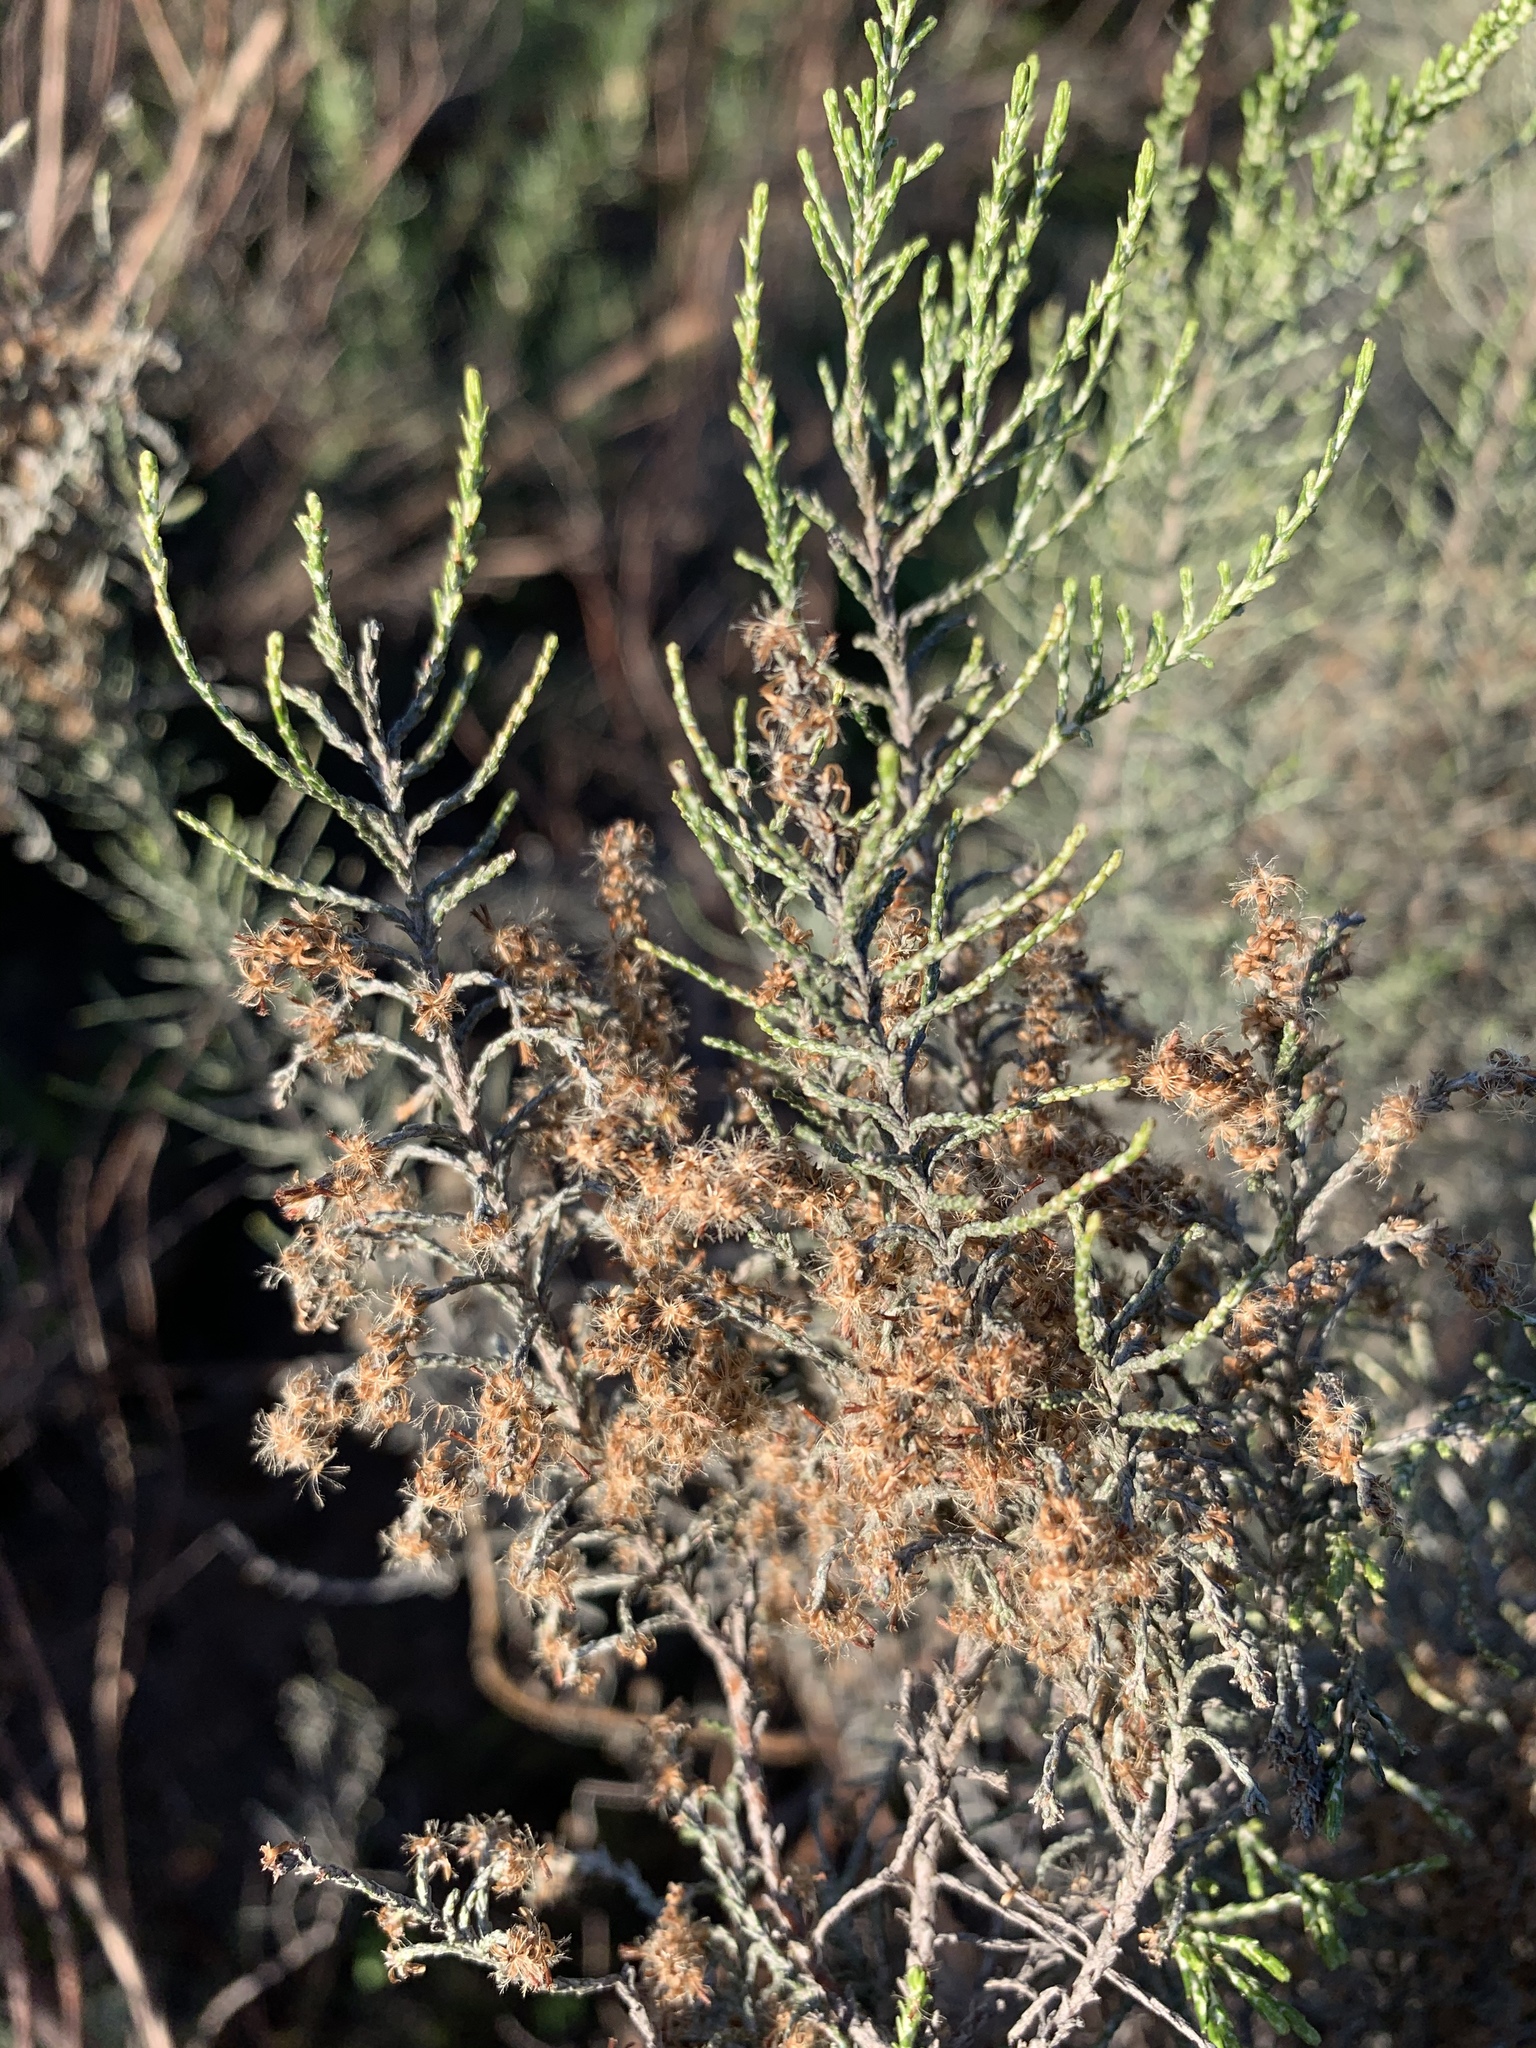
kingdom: Plantae
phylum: Tracheophyta
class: Magnoliopsida
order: Asterales
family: Asteraceae
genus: Dicerothamnus
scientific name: Dicerothamnus rhinocerotis
